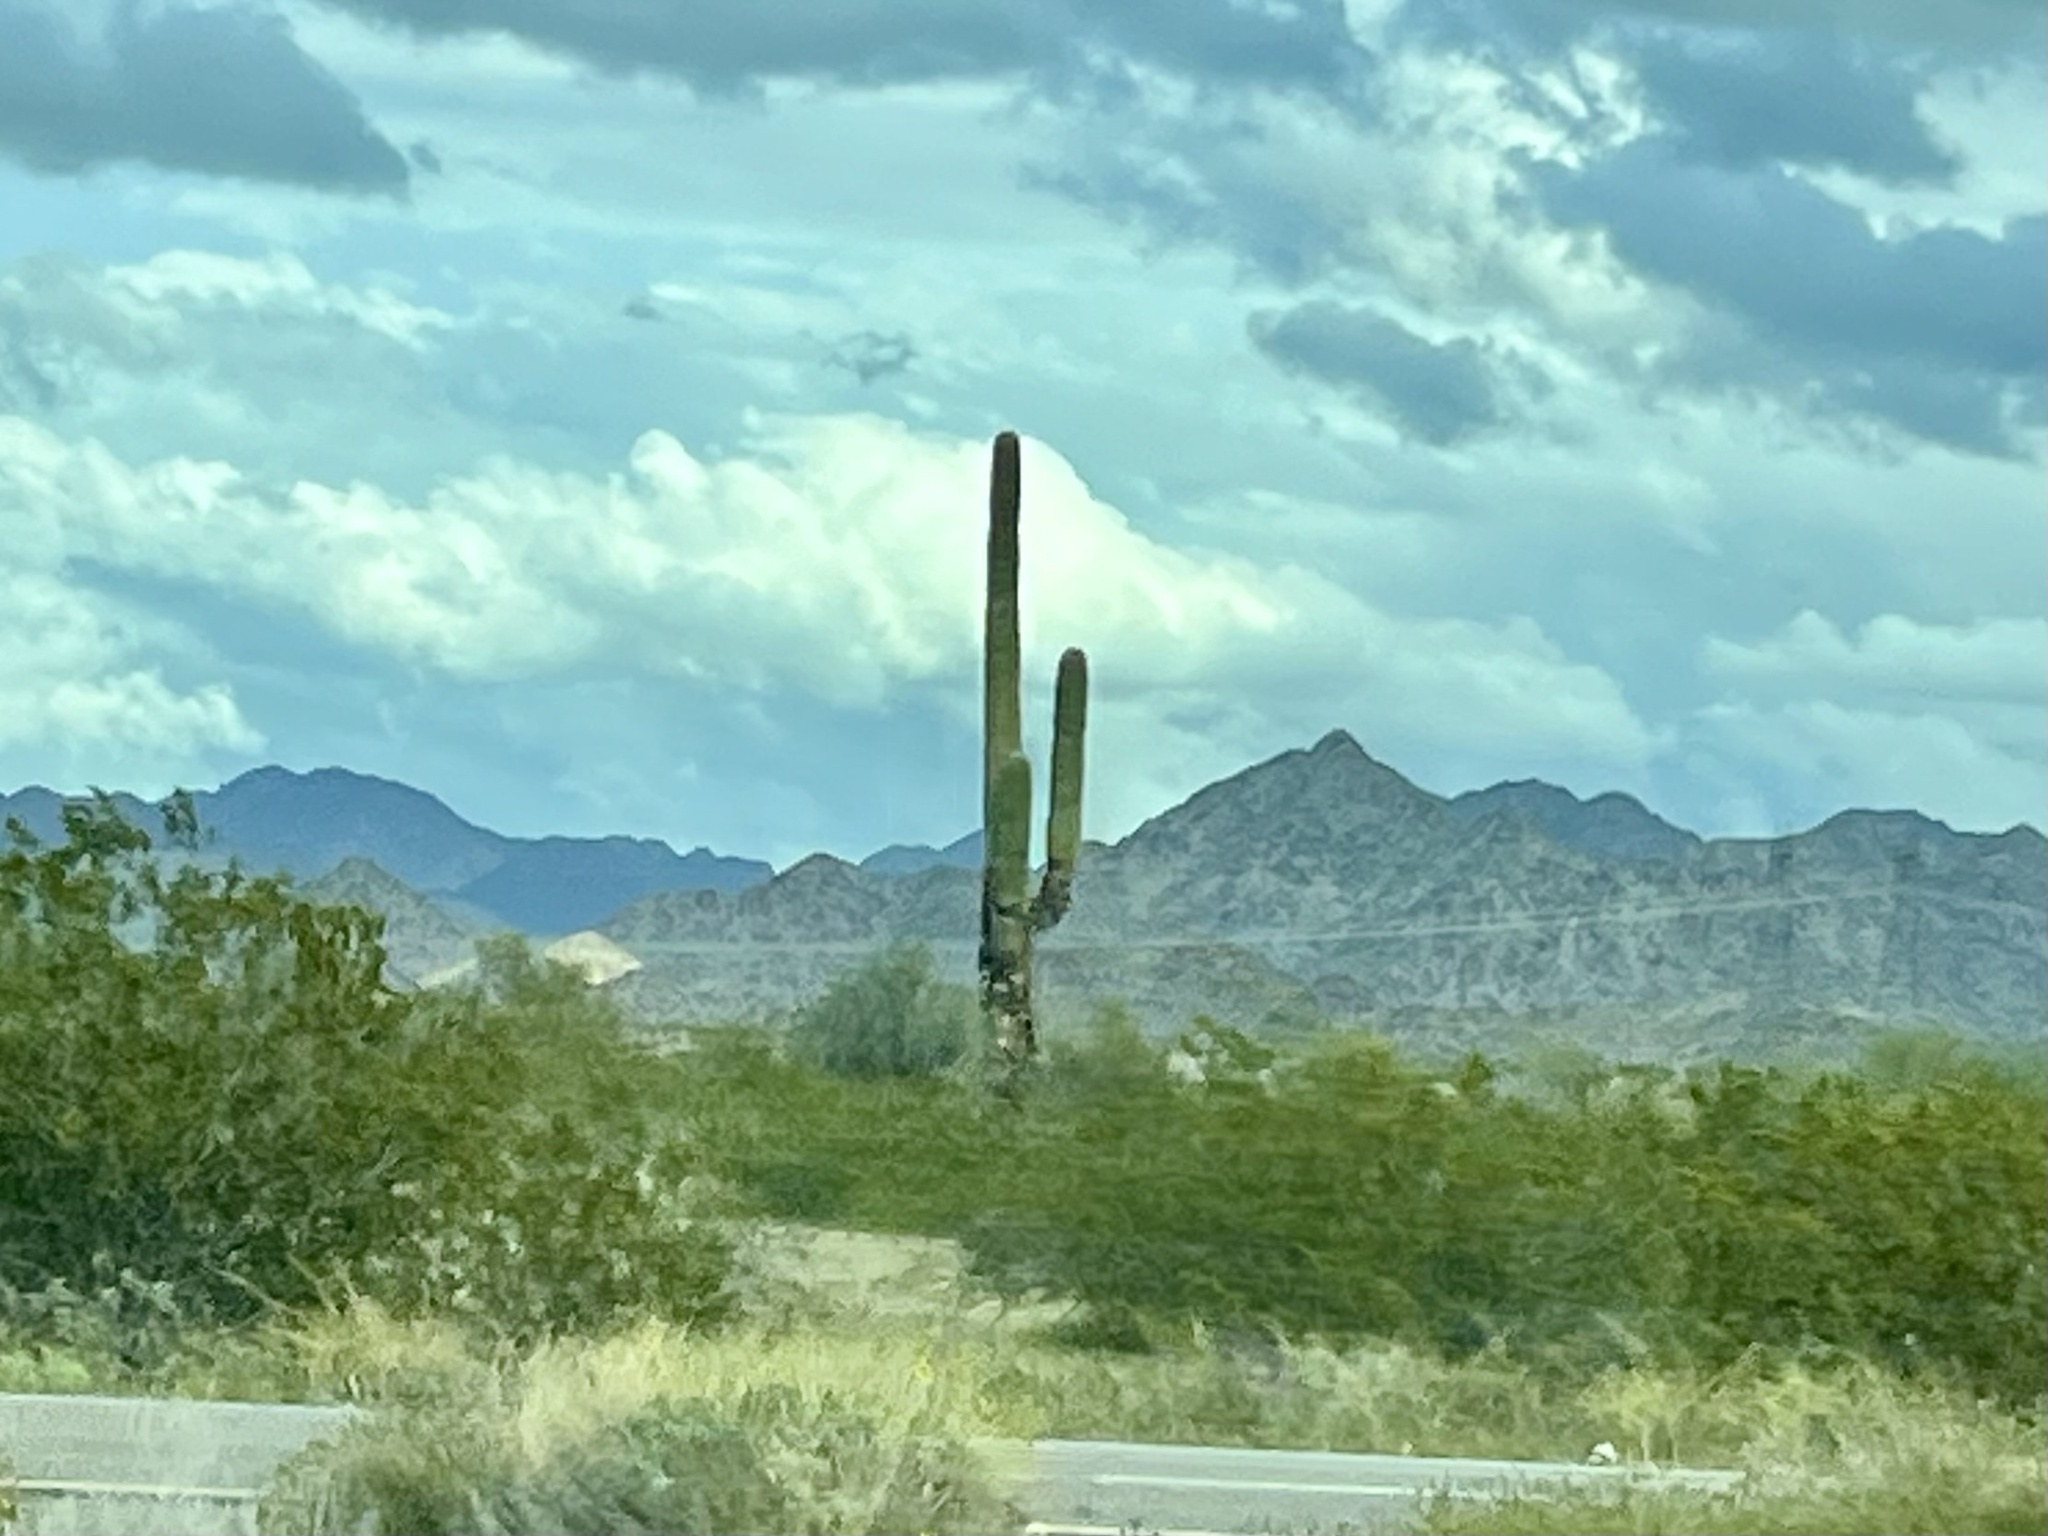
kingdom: Plantae
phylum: Tracheophyta
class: Magnoliopsida
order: Caryophyllales
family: Cactaceae
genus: Carnegiea
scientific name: Carnegiea gigantea
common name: Saguaro
